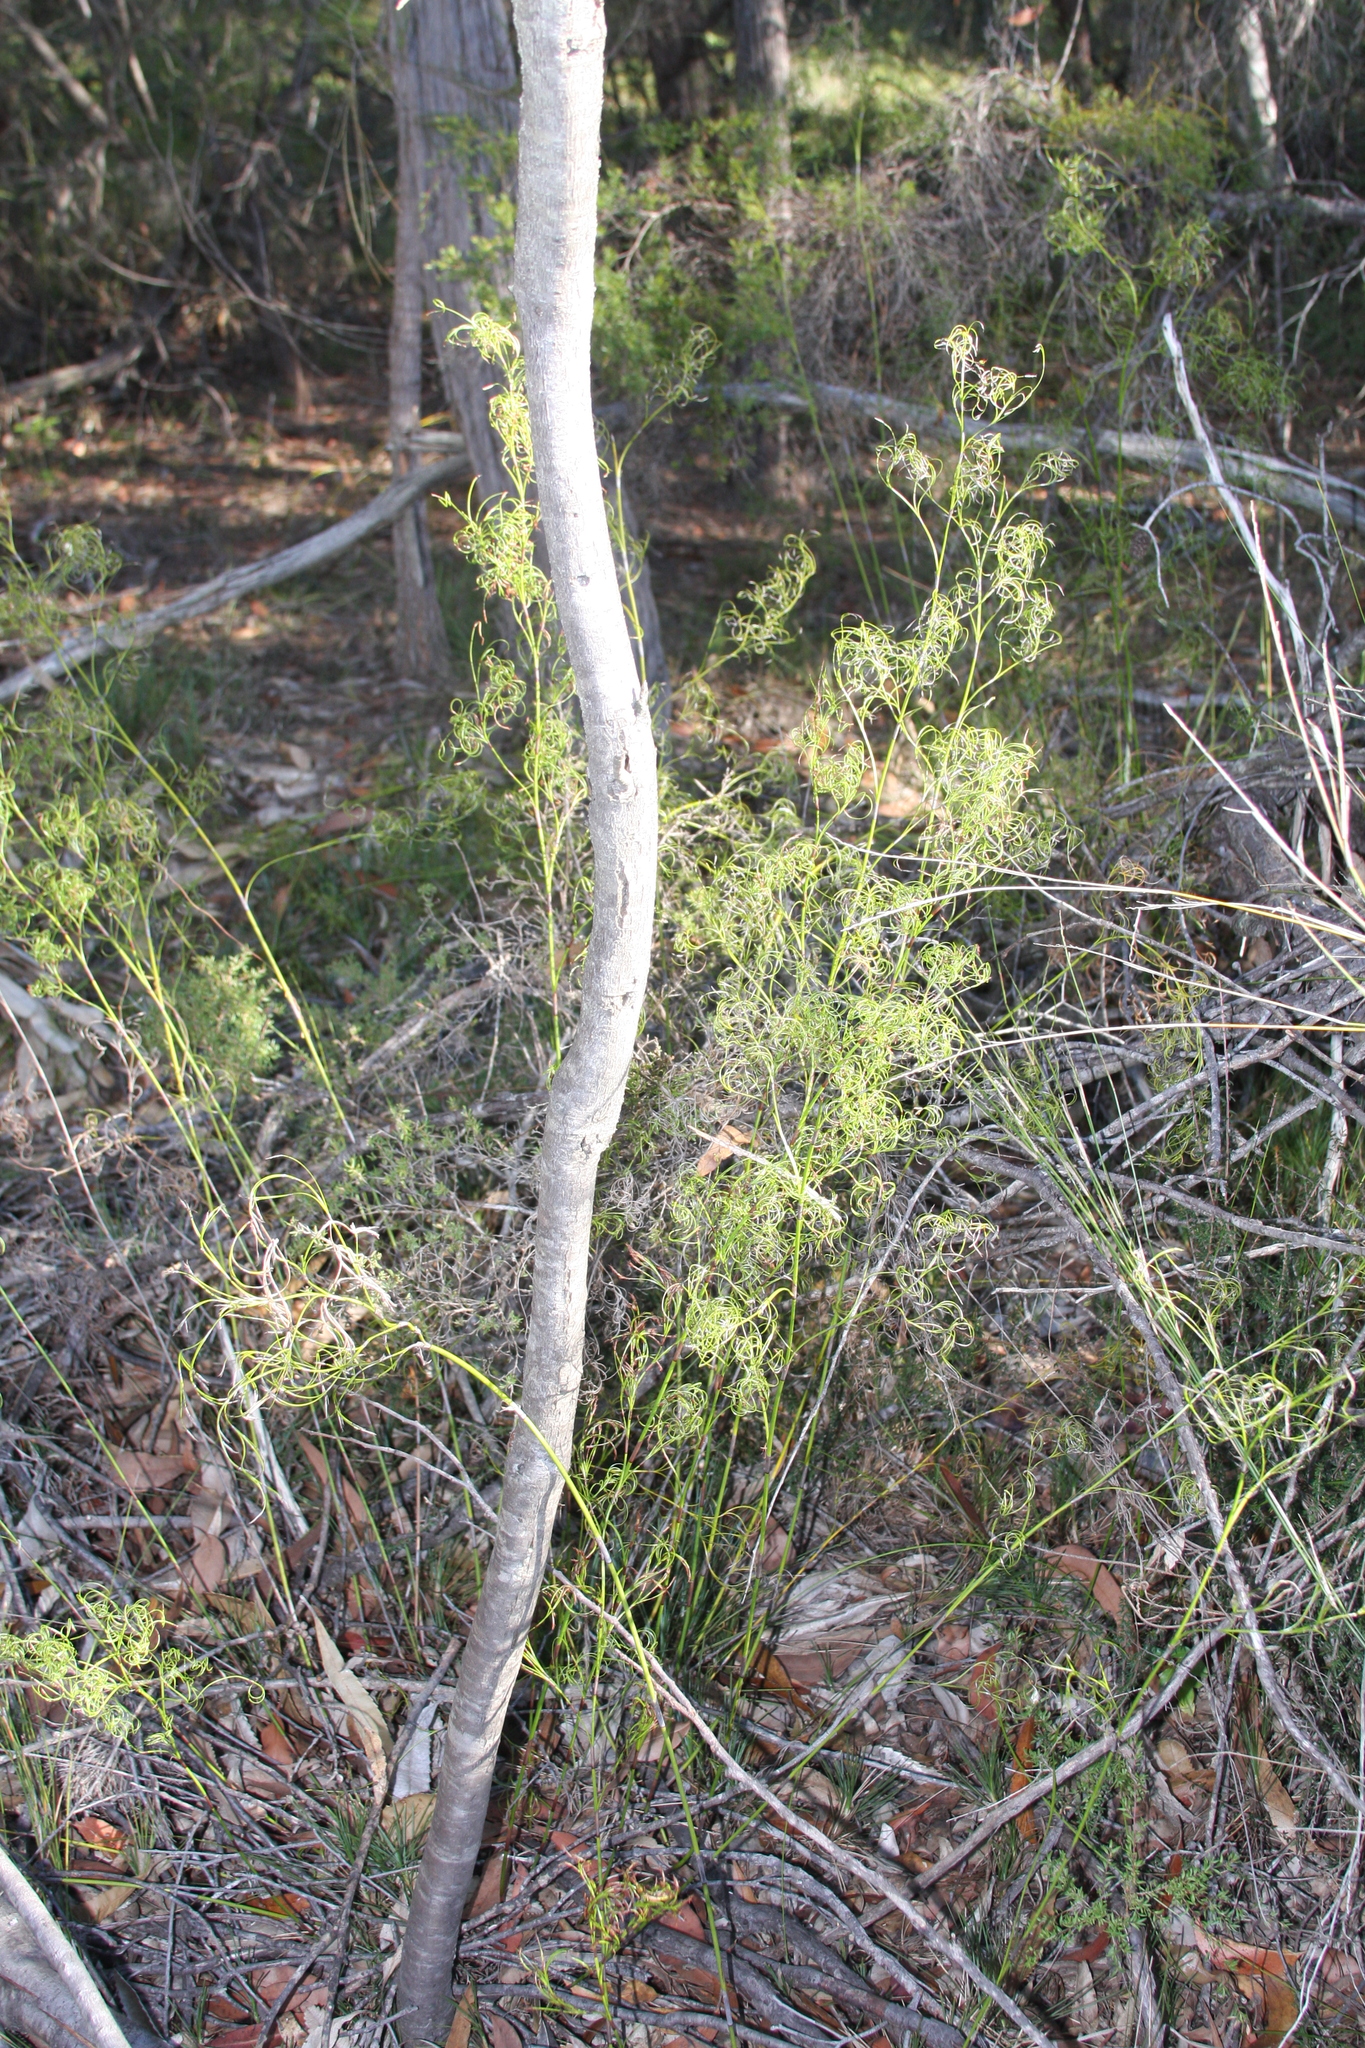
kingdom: Plantae
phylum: Tracheophyta
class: Liliopsida
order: Poales
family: Cyperaceae
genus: Caustis
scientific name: Caustis flexuosa
